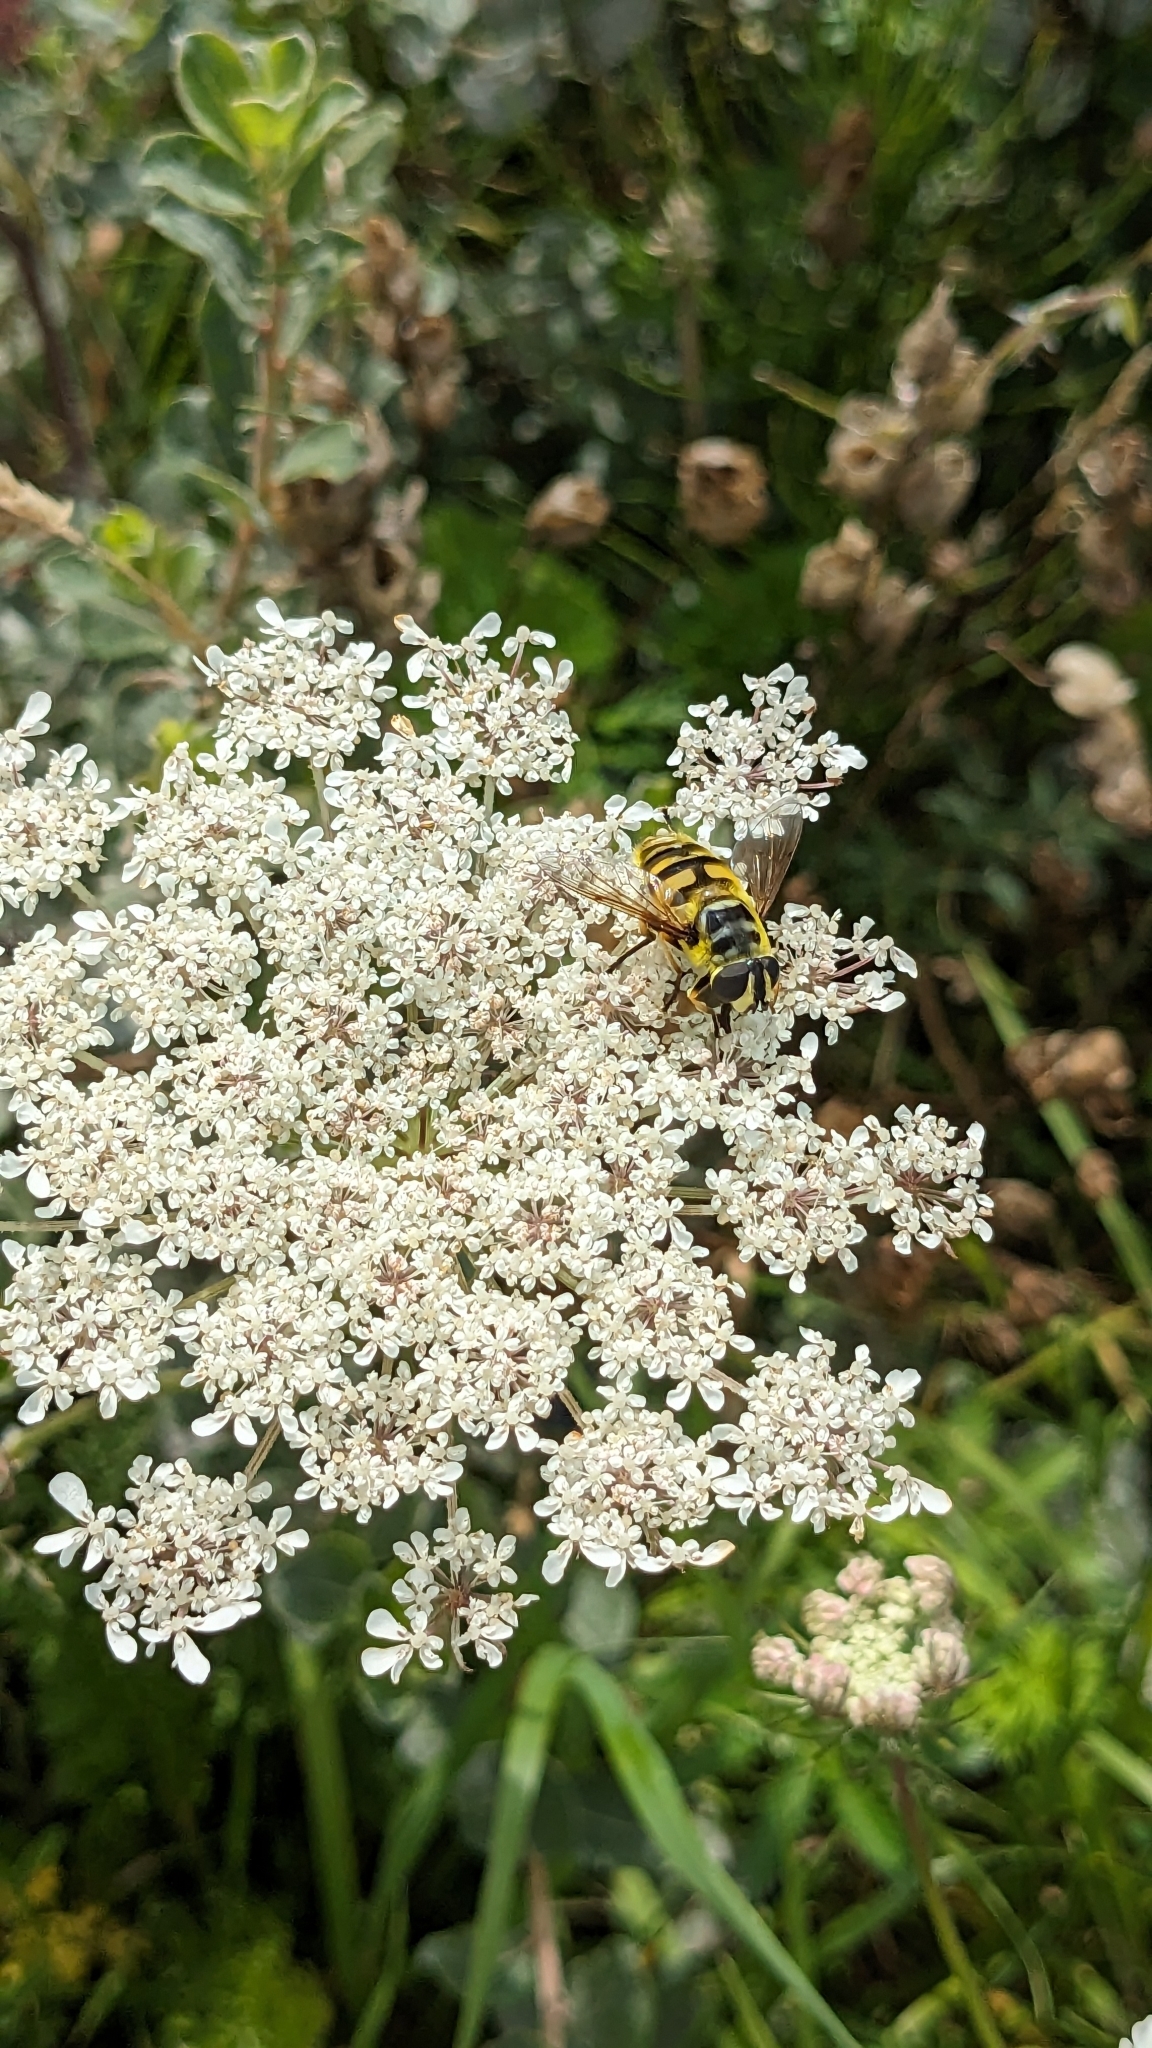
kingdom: Animalia
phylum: Arthropoda
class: Insecta
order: Diptera
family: Syrphidae
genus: Myathropa
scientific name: Myathropa florea
